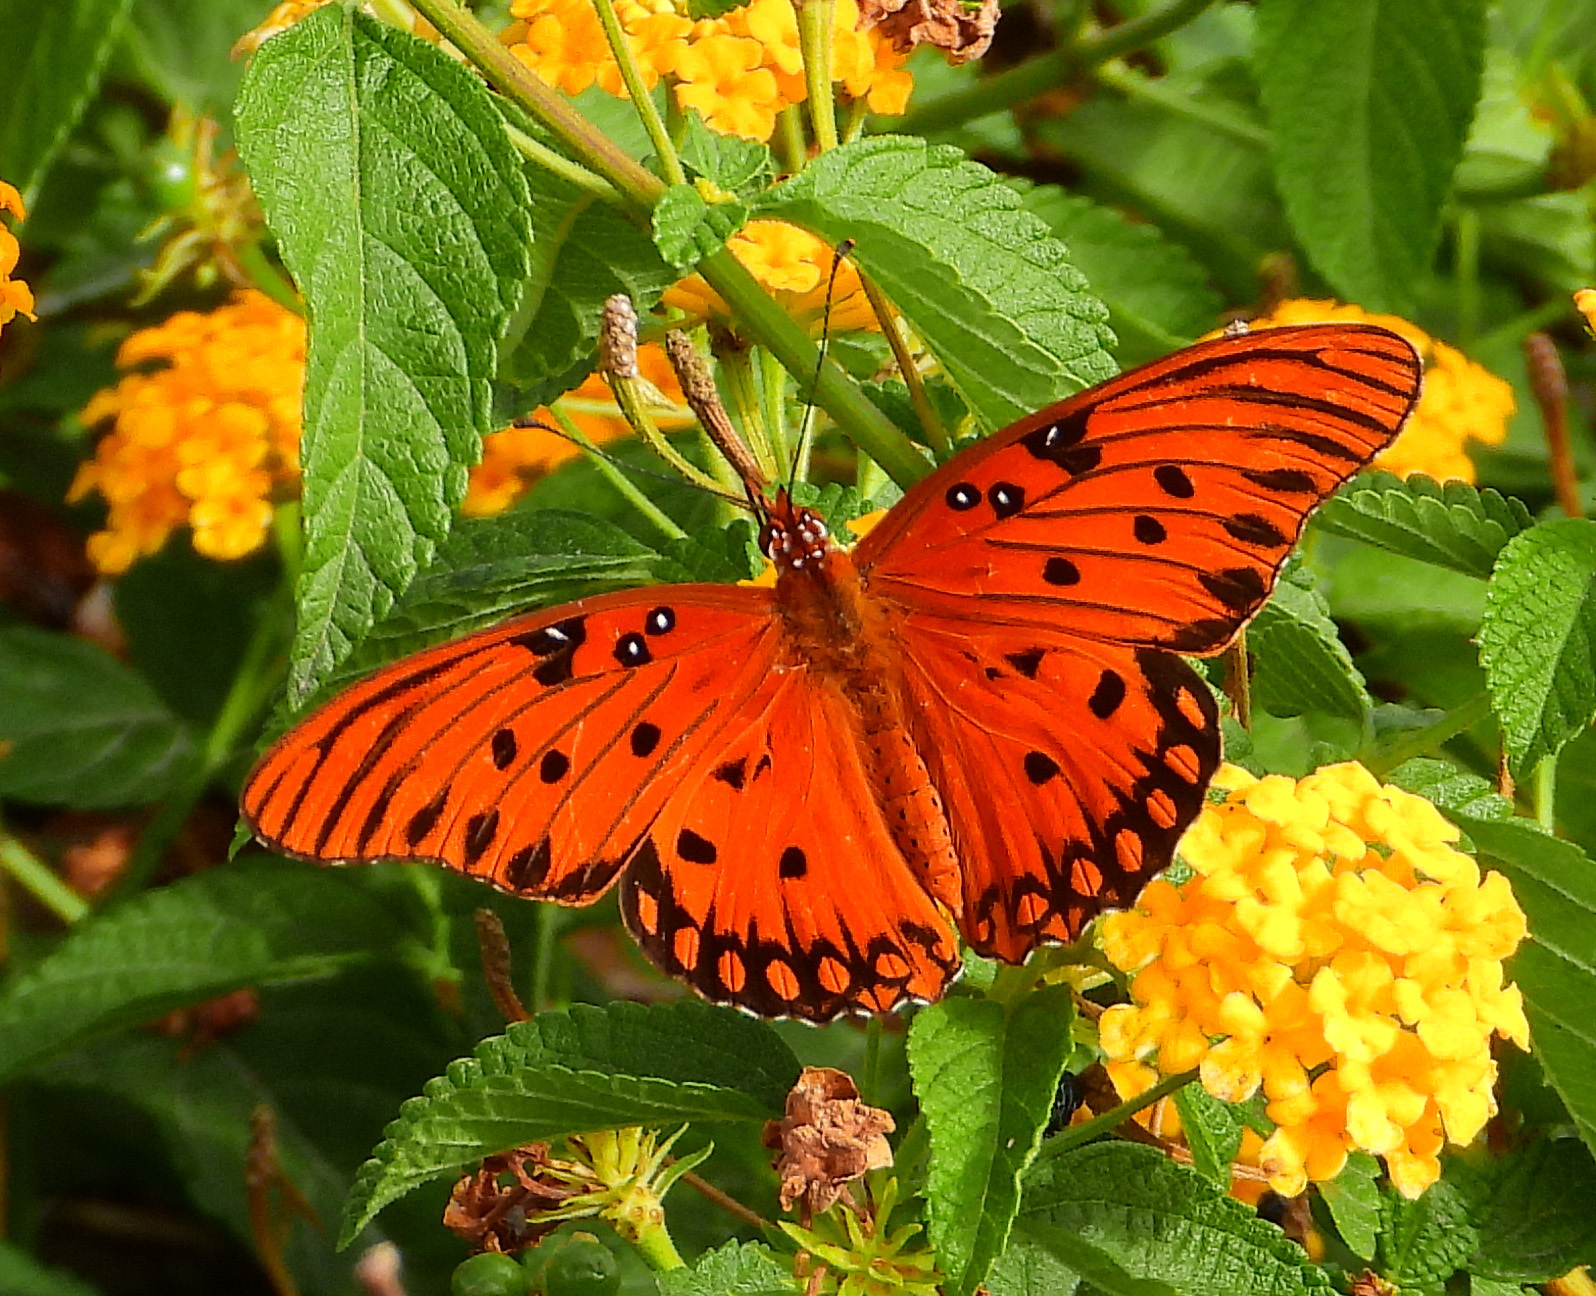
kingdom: Animalia
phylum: Arthropoda
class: Insecta
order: Lepidoptera
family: Nymphalidae
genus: Dione
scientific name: Dione vanillae
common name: Gulf fritillary
